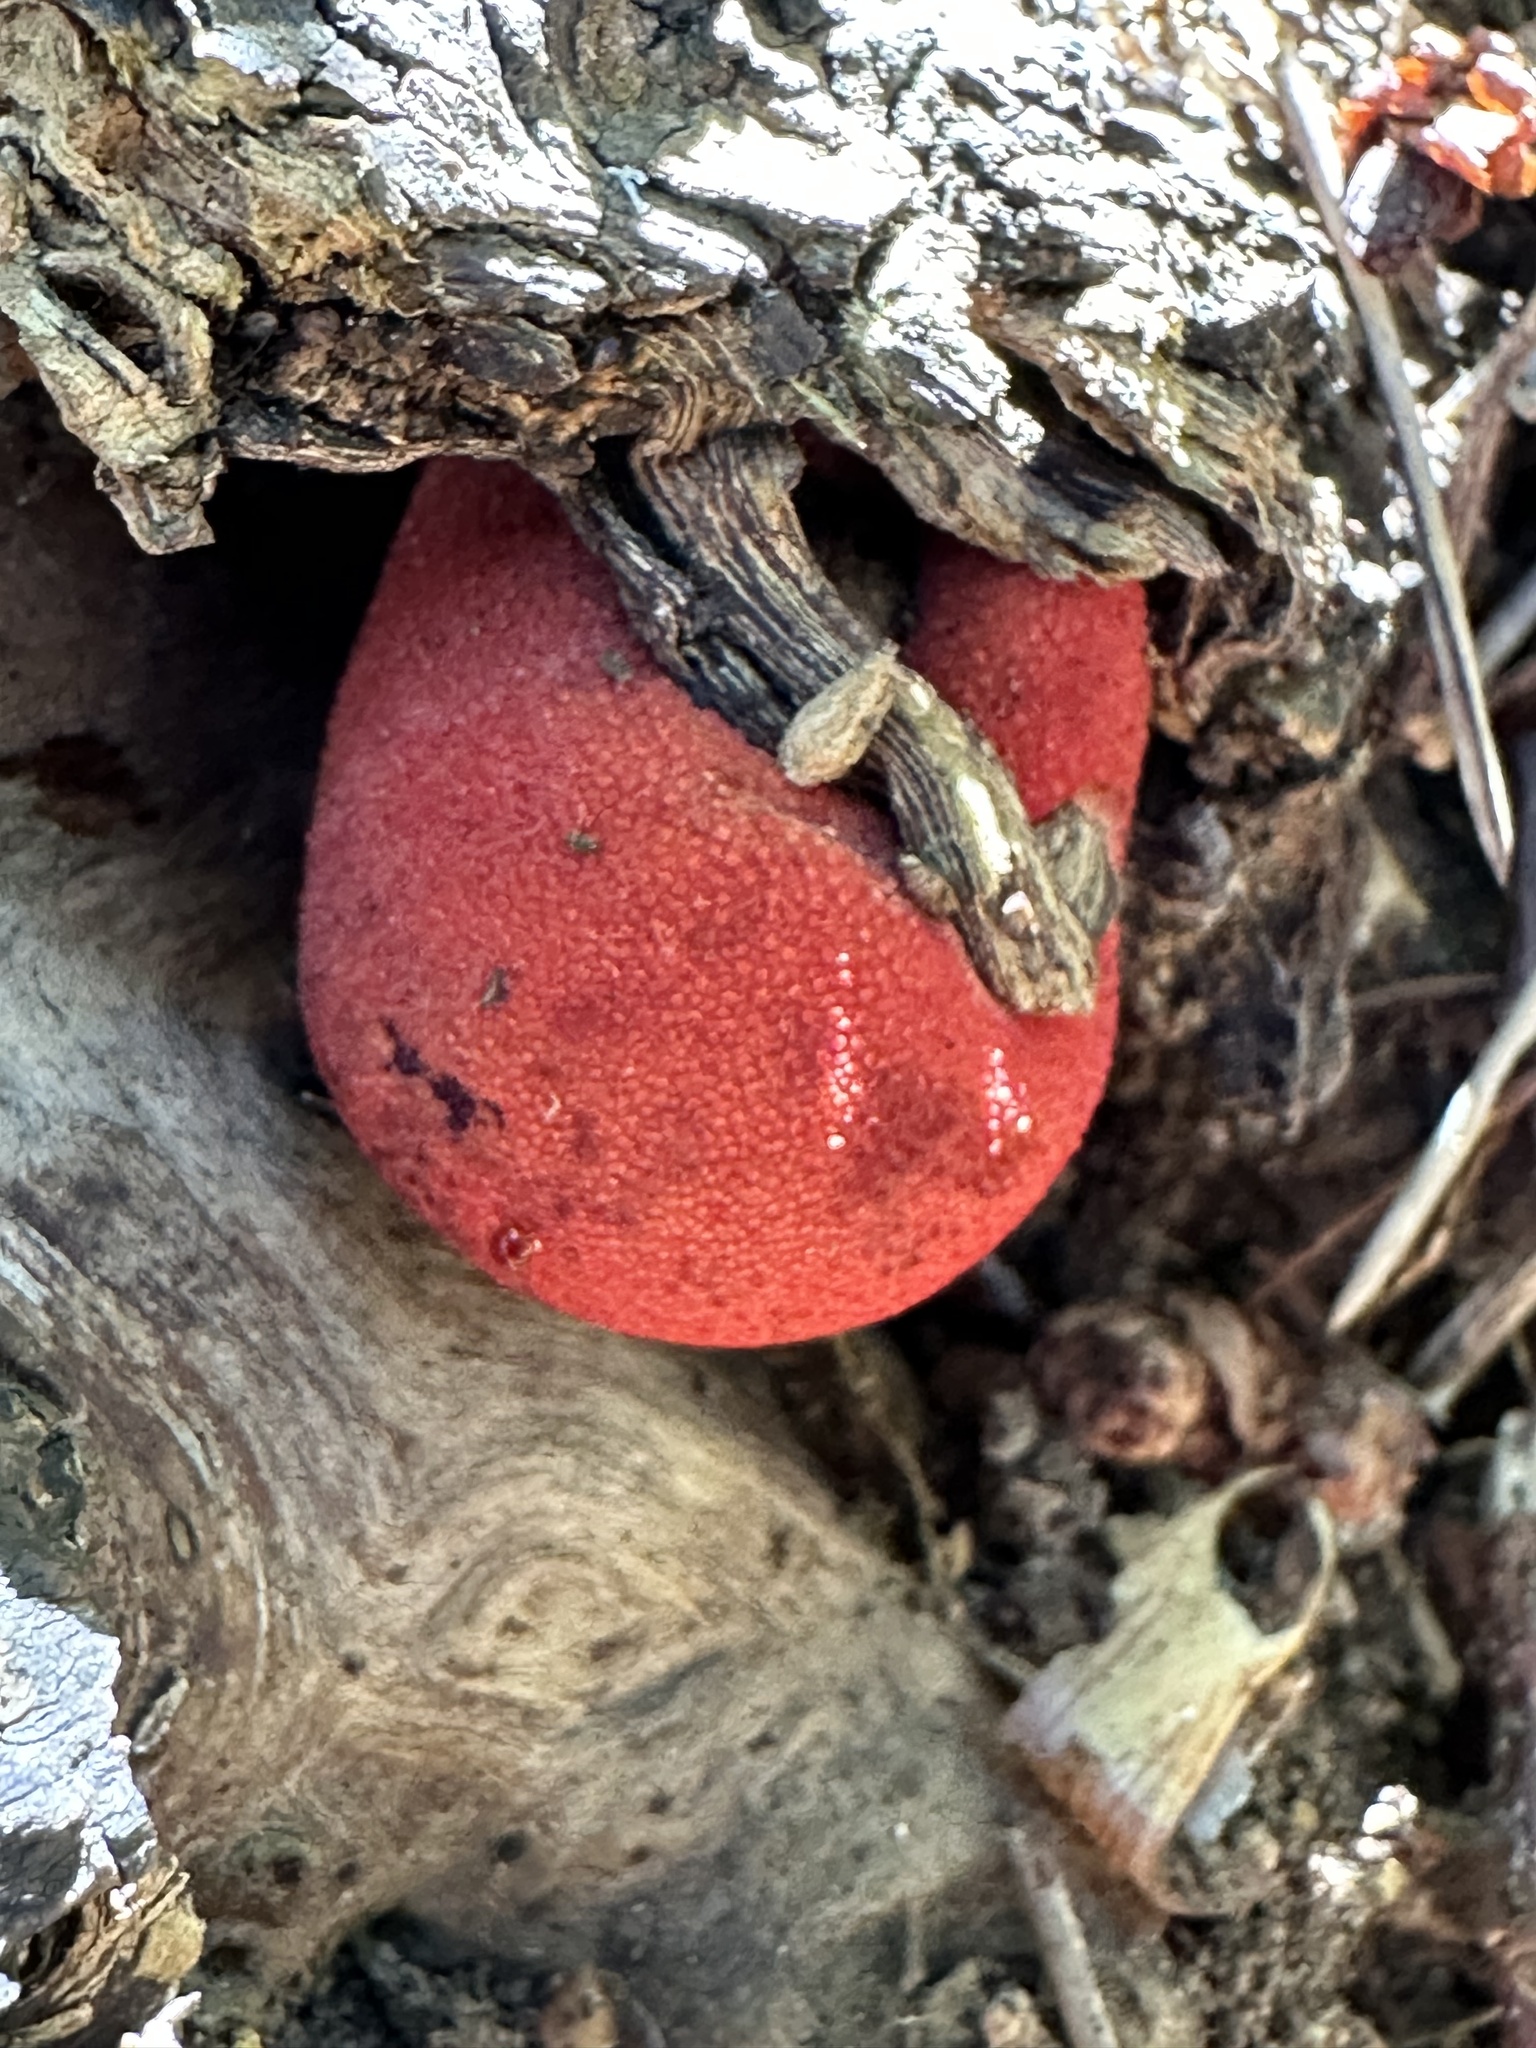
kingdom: Fungi
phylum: Basidiomycota
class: Agaricomycetes
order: Agaricales
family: Fistulinaceae
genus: Fistulina
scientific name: Fistulina hepatica
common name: Beef-steak fungus
